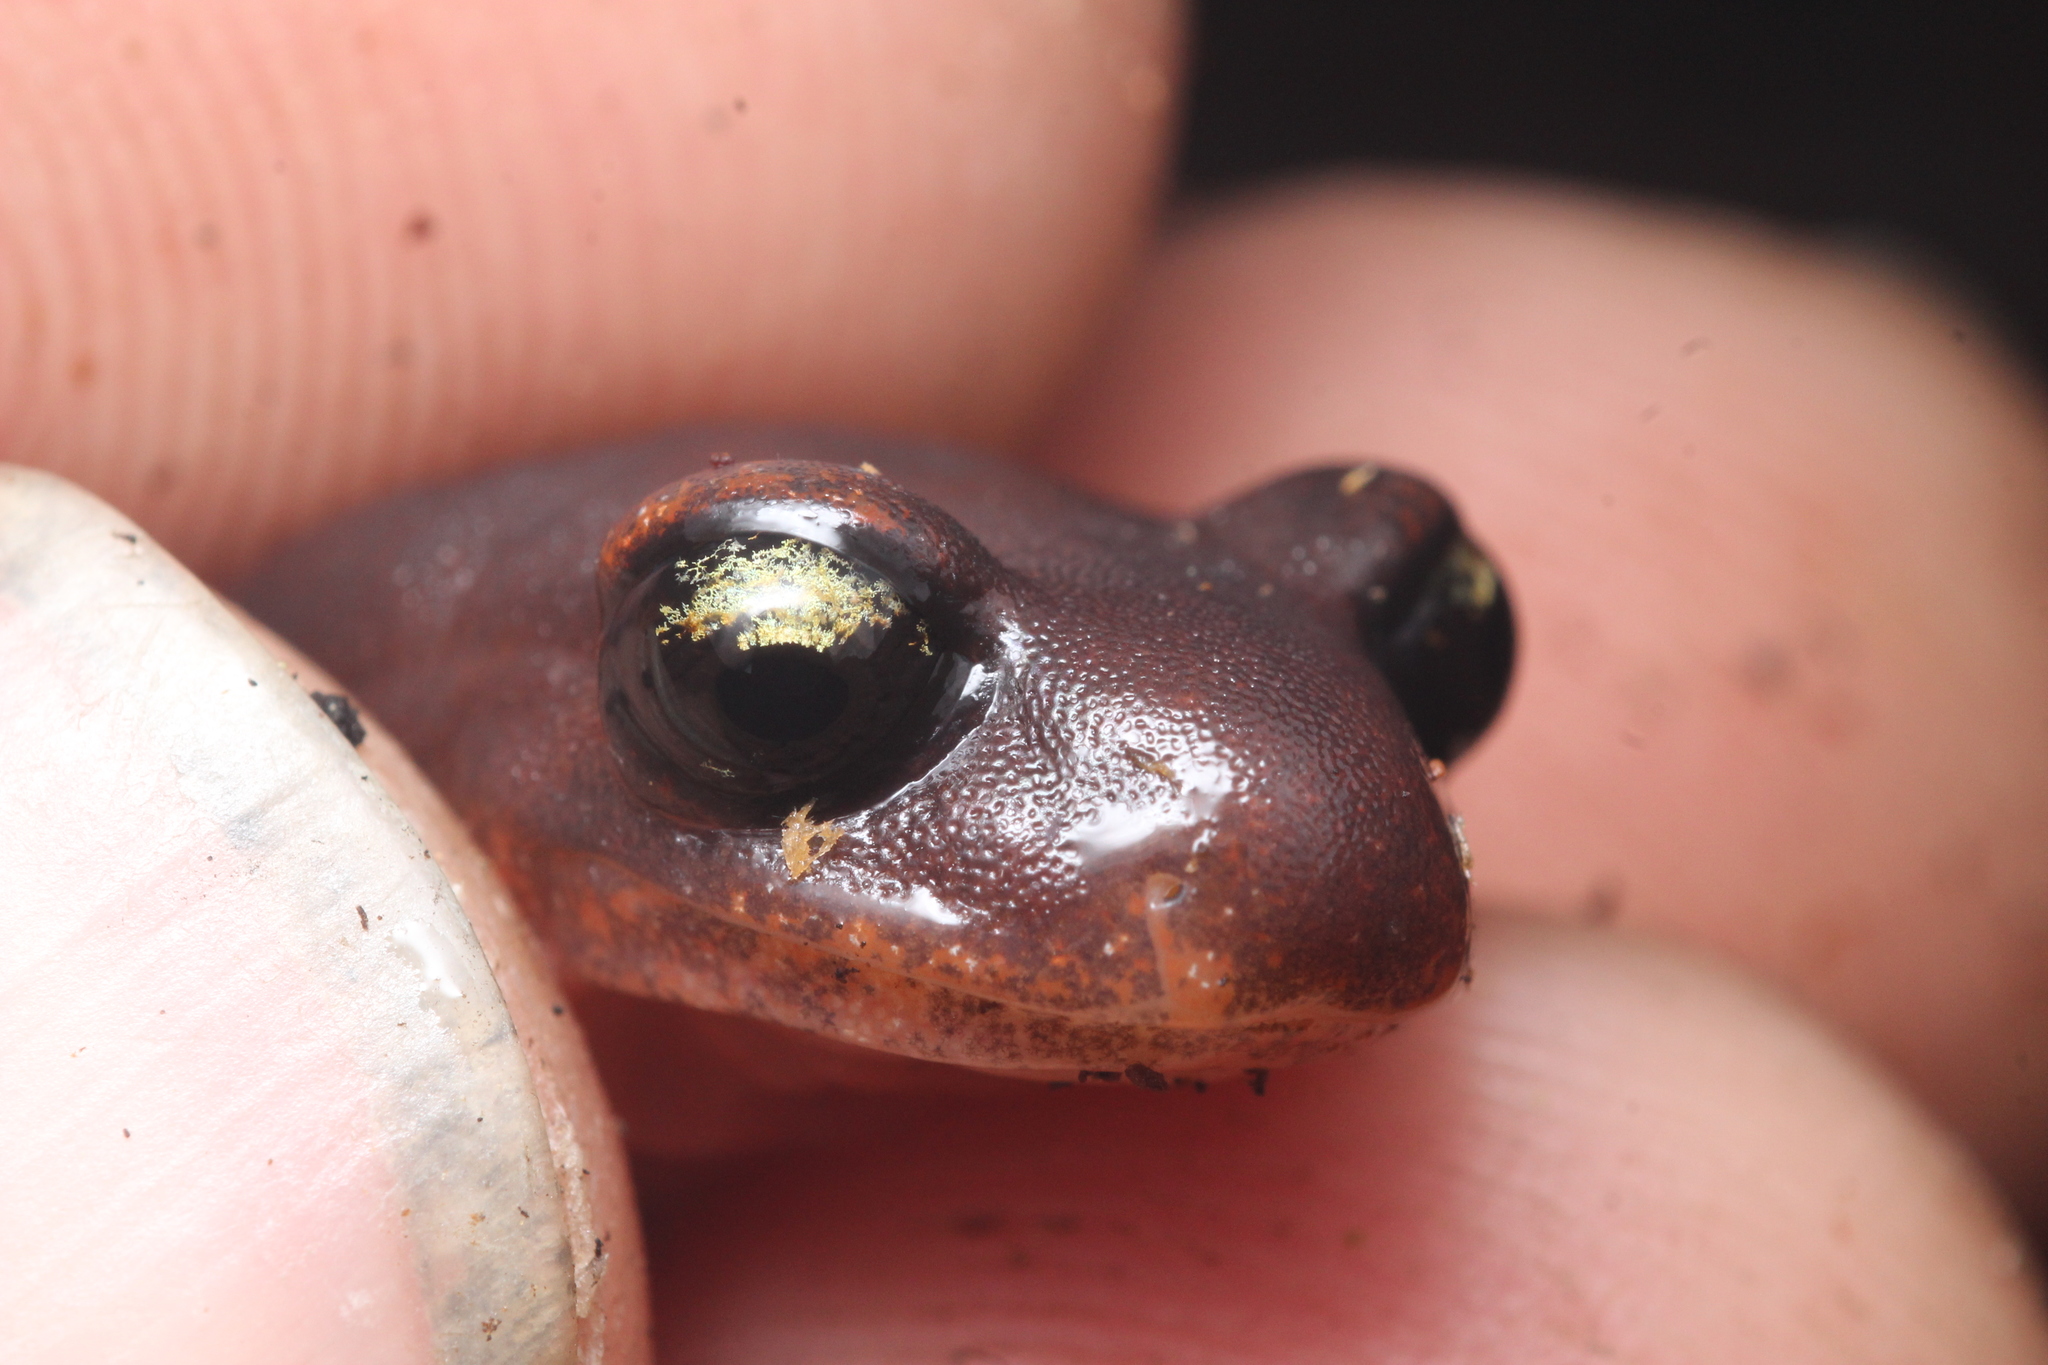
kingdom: Animalia
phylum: Chordata
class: Amphibia
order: Caudata
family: Plethodontidae
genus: Ensatina
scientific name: Ensatina eschscholtzii
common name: Ensatina
